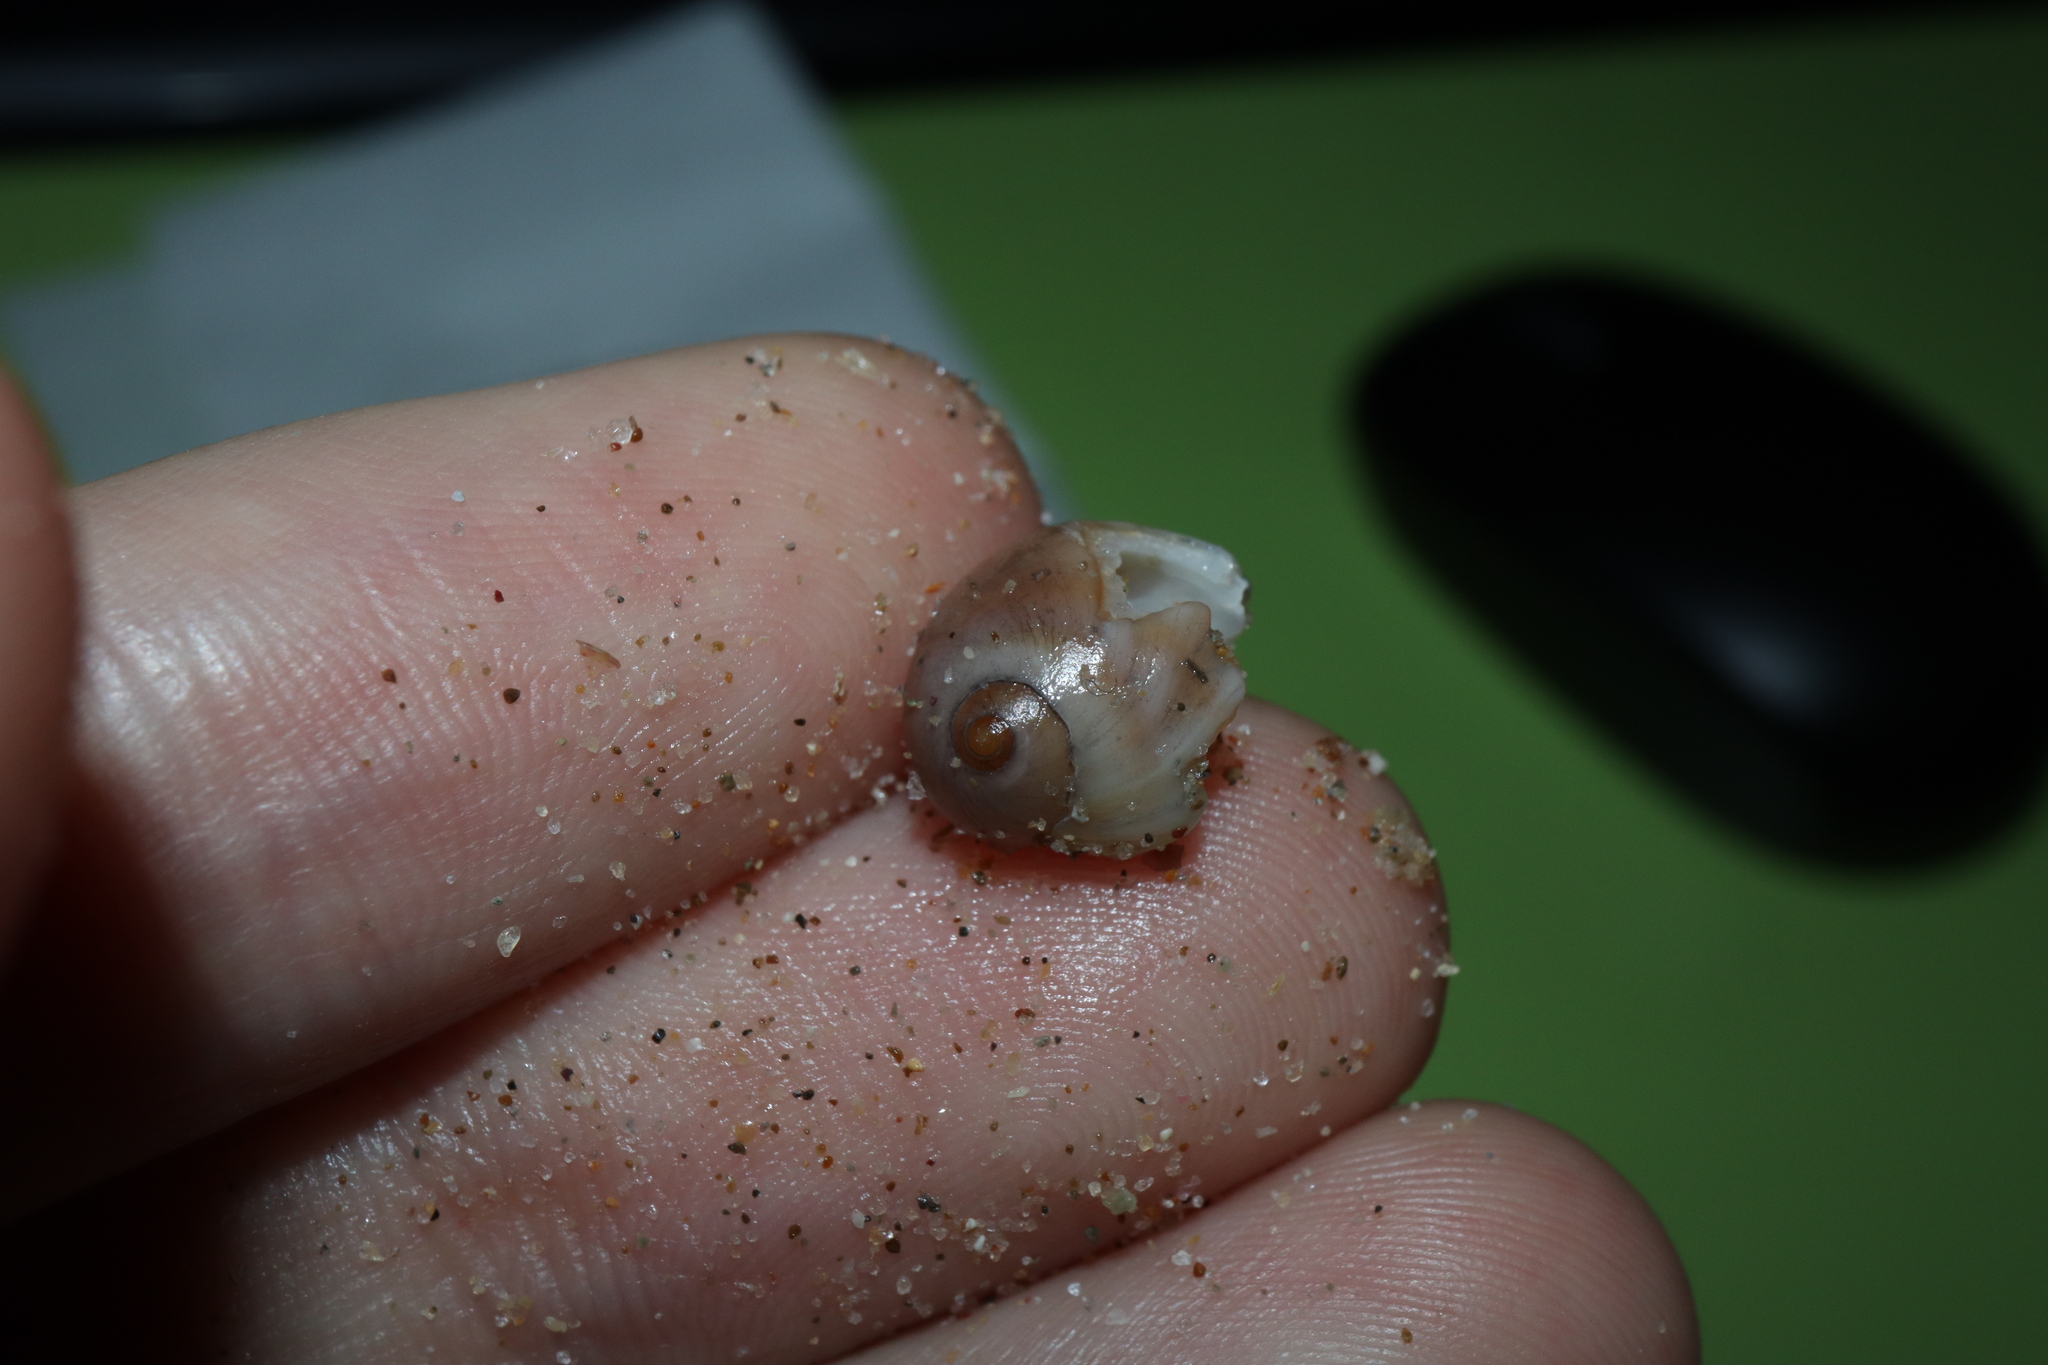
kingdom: Animalia
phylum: Mollusca
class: Gastropoda
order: Littorinimorpha
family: Naticidae
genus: Conuber
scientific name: Conuber melastoma
